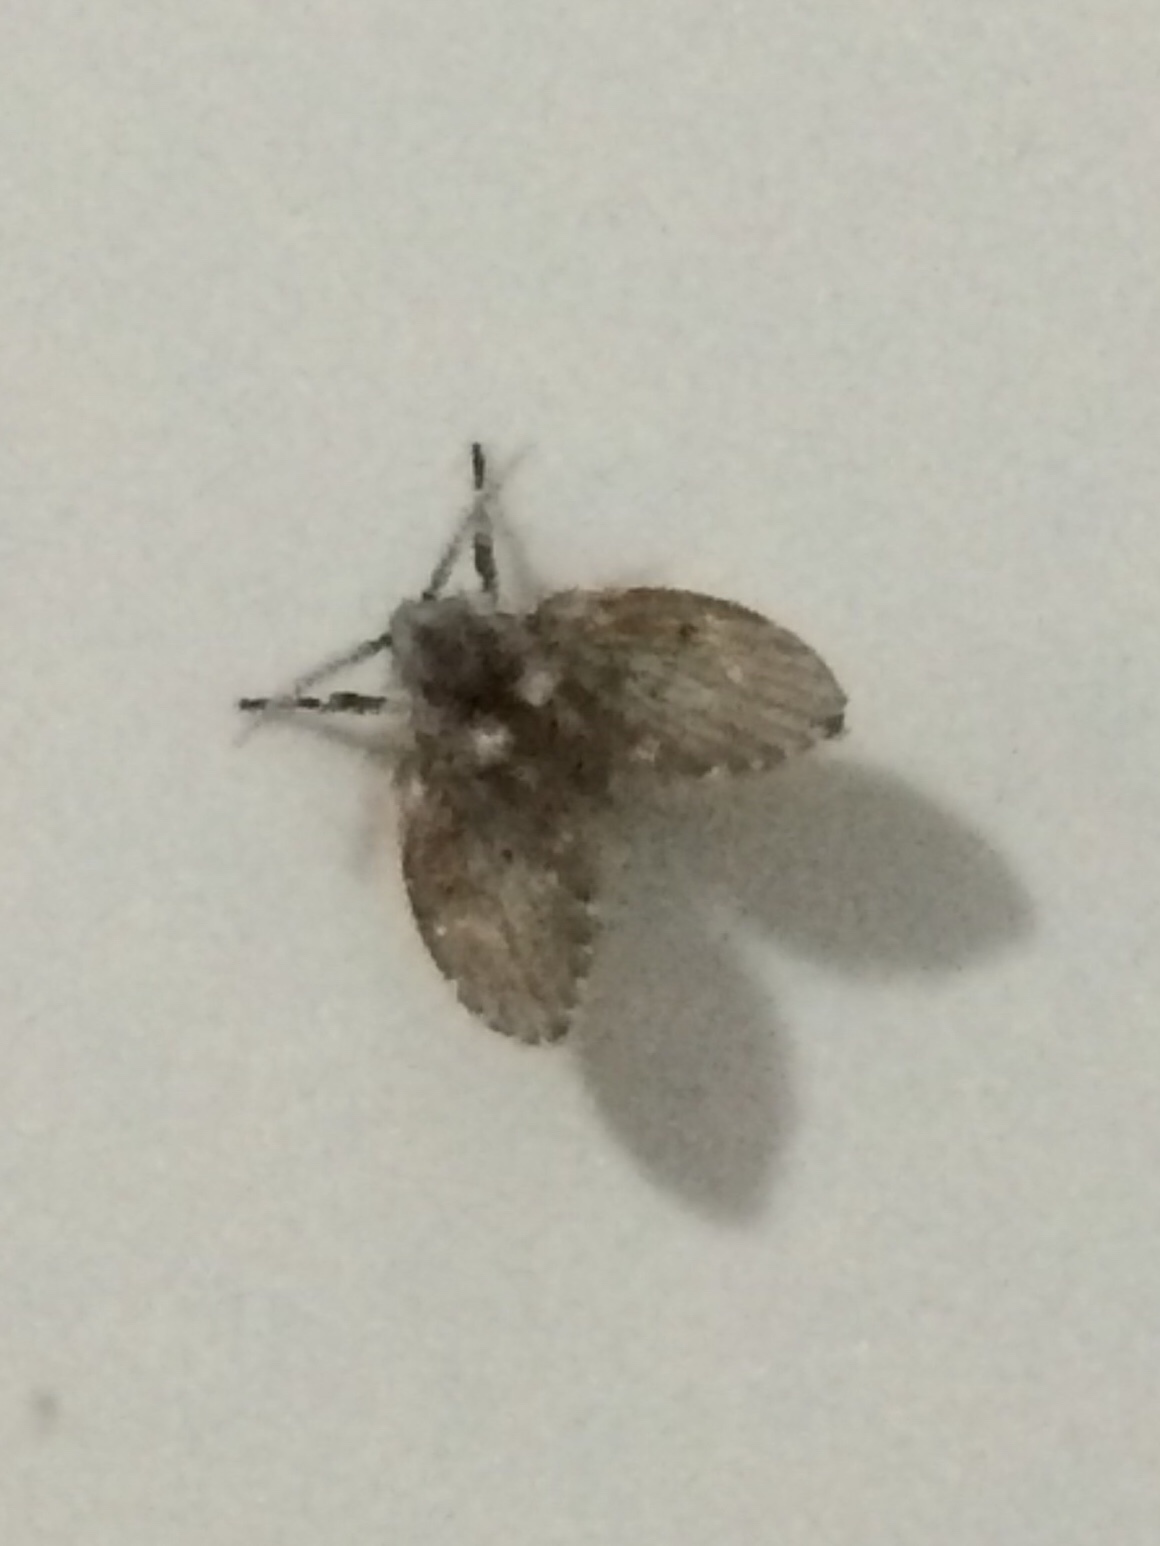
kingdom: Animalia
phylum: Arthropoda
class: Insecta
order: Diptera
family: Psychodidae
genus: Clogmia
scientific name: Clogmia albipunctatus
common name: White-spotted moth fly
